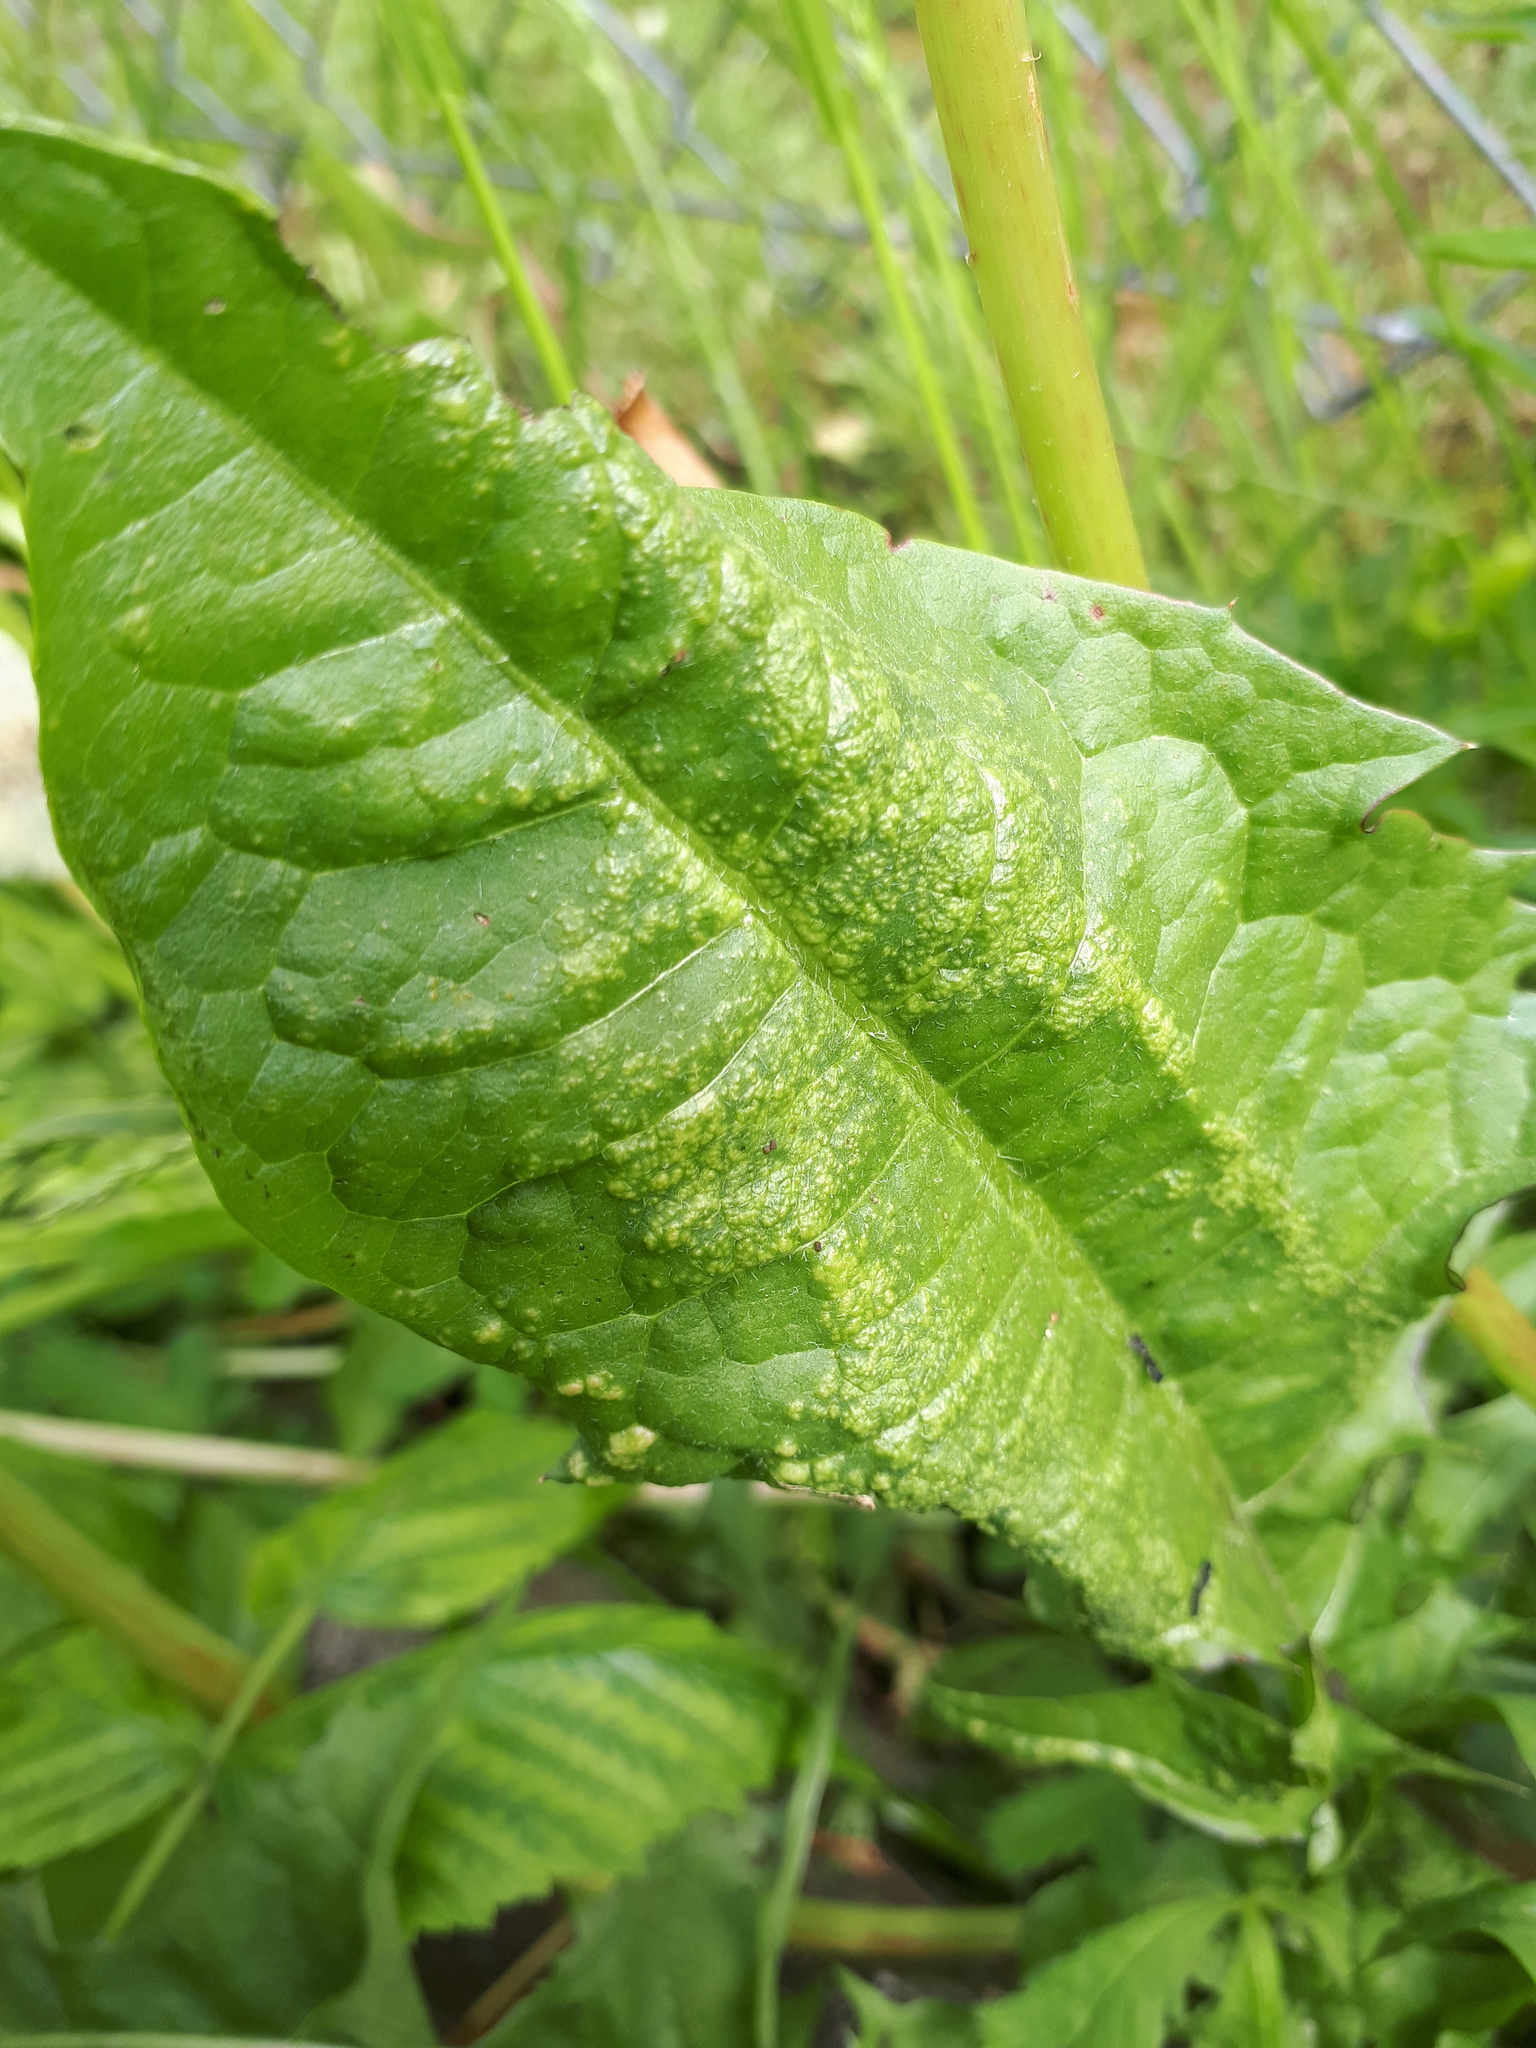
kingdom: Fungi
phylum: Chytridiomycota
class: Chytridiomycetes
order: Chytridiales
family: Synchytriaceae
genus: Synchytrium
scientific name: Synchytrium taraxaci
